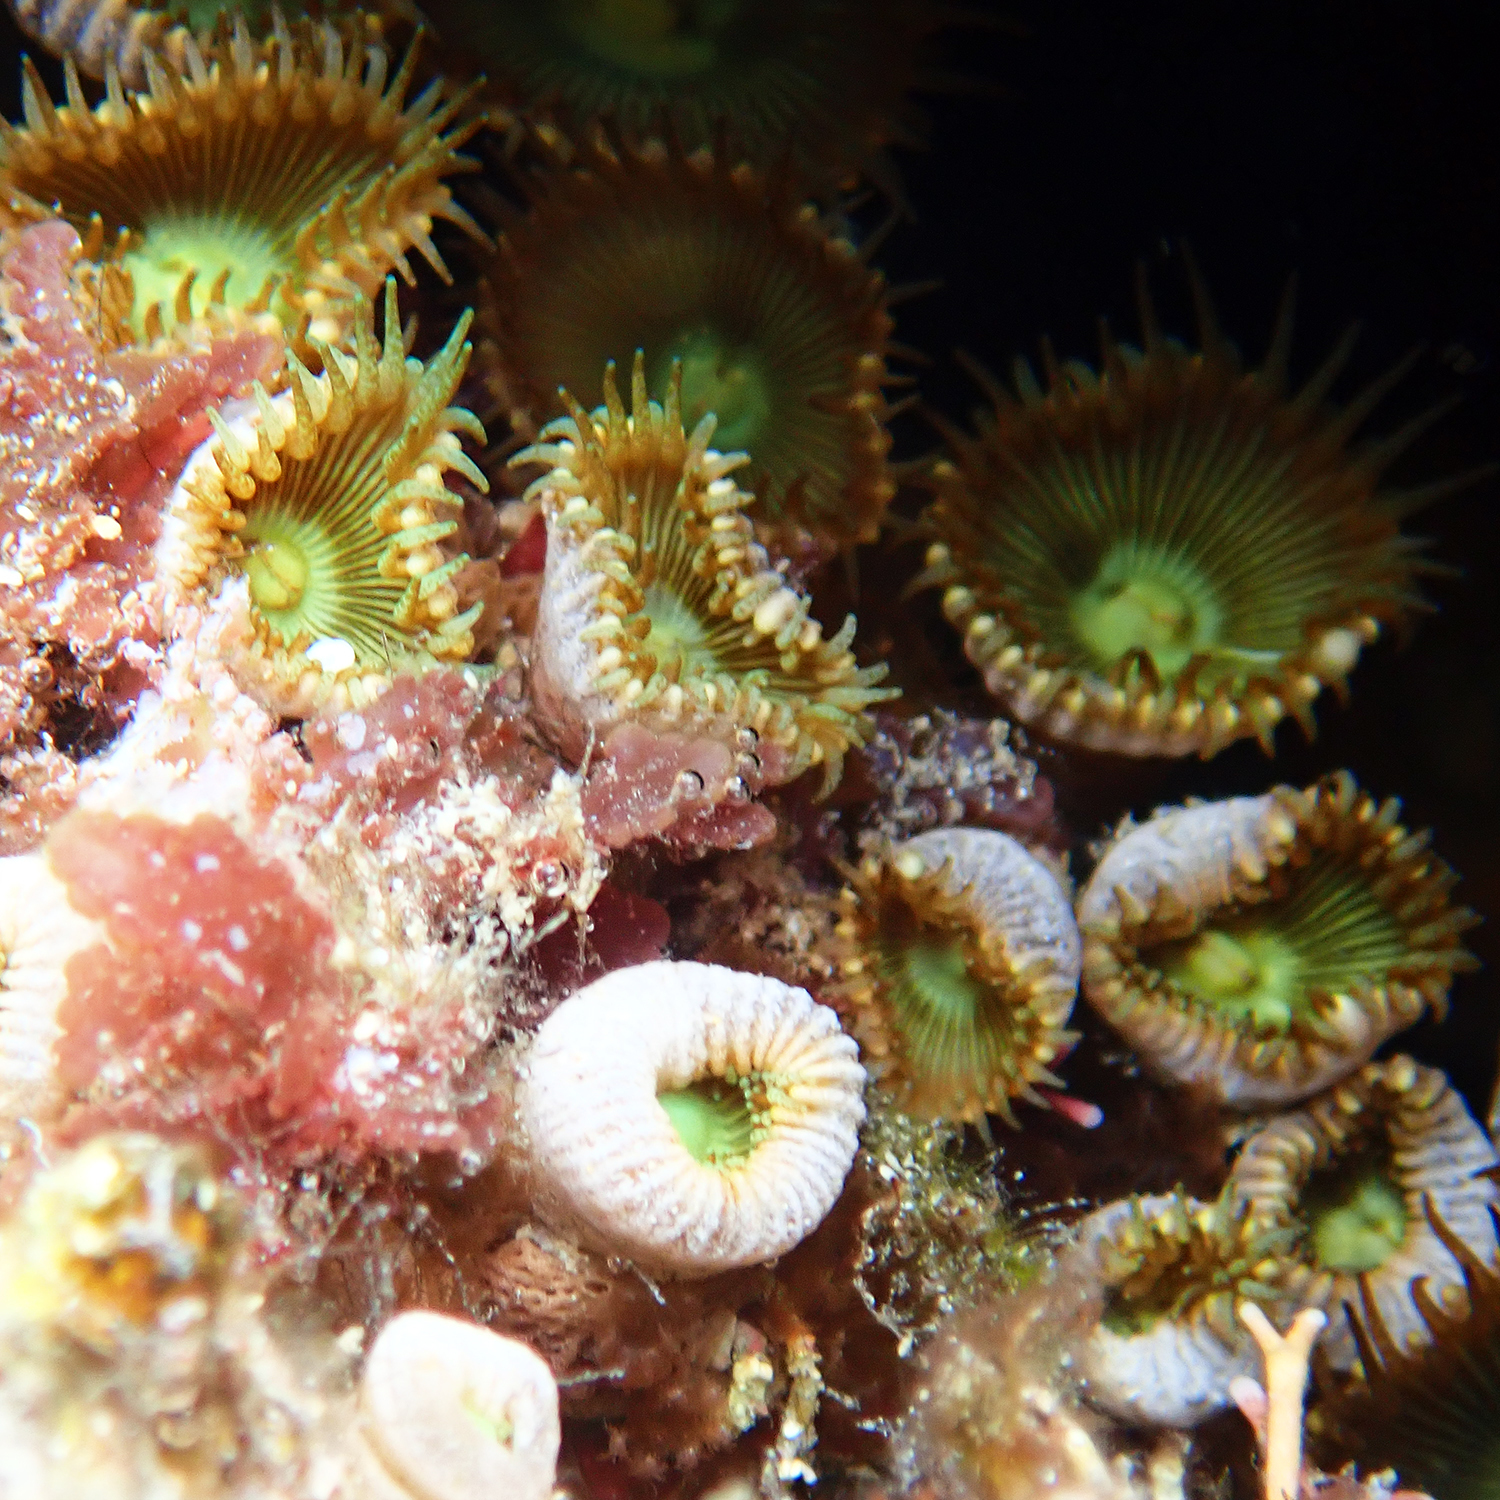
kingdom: Animalia
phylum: Cnidaria
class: Anthozoa
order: Zoantharia
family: Sphenopidae
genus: Palythoa
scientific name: Palythoa mutuki
